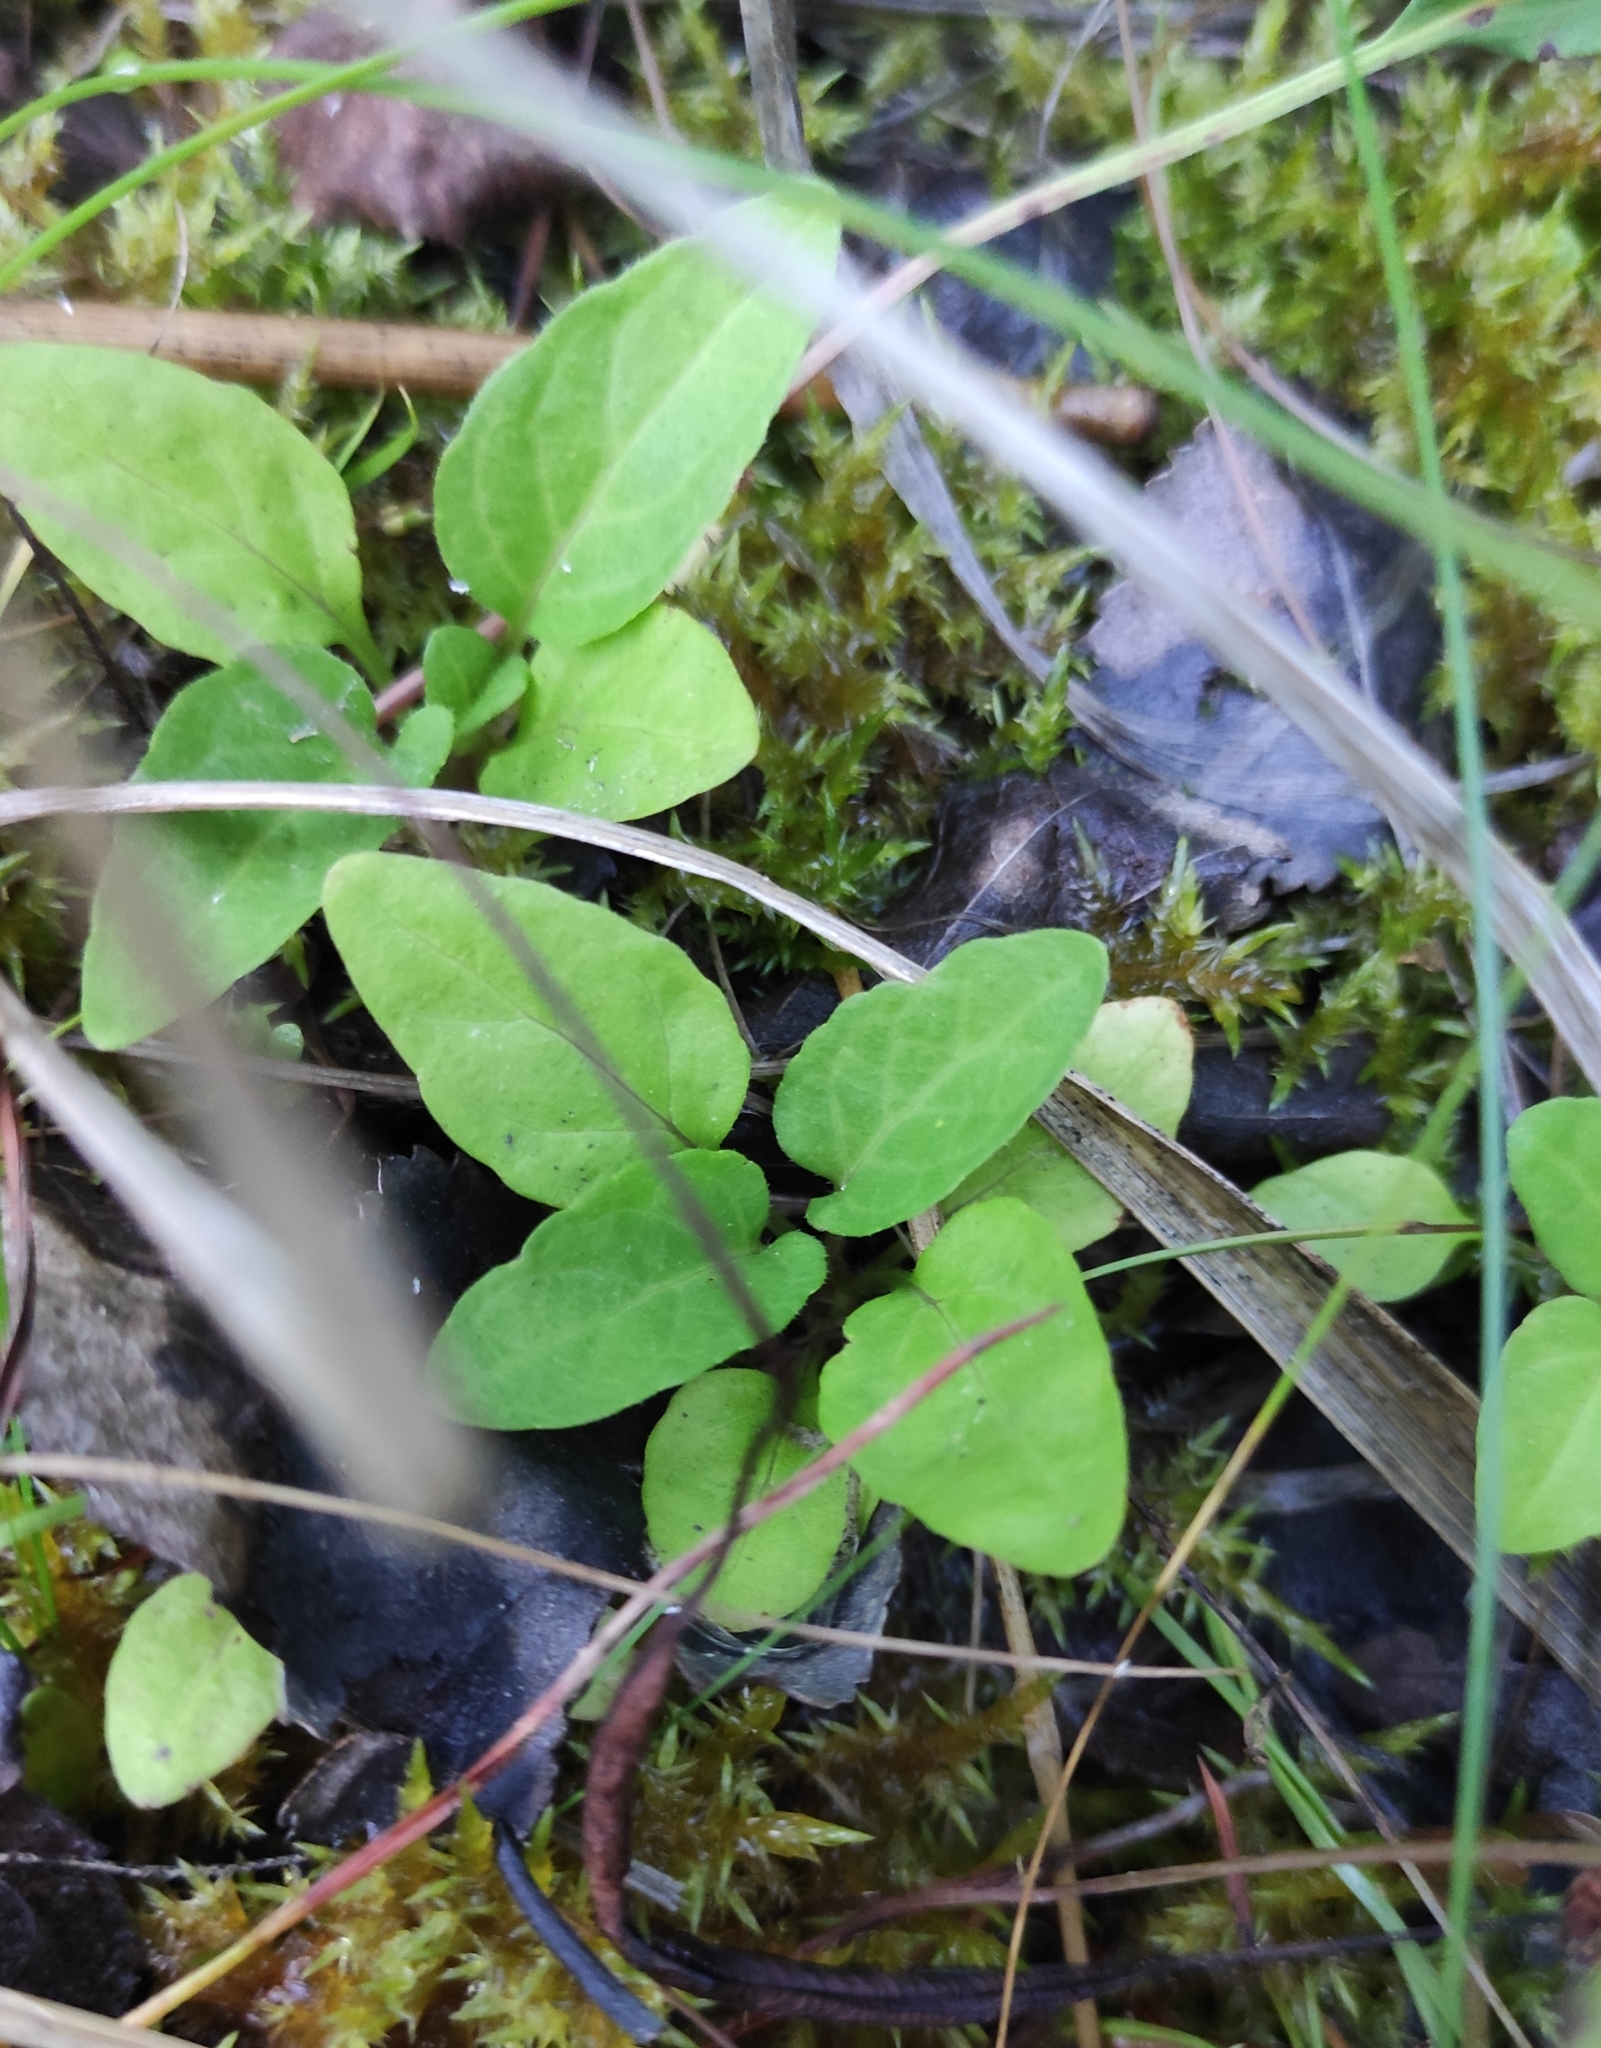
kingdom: Plantae
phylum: Tracheophyta
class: Magnoliopsida
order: Lamiales
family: Lamiaceae
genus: Prunella
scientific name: Prunella vulgaris
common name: Heal-all
